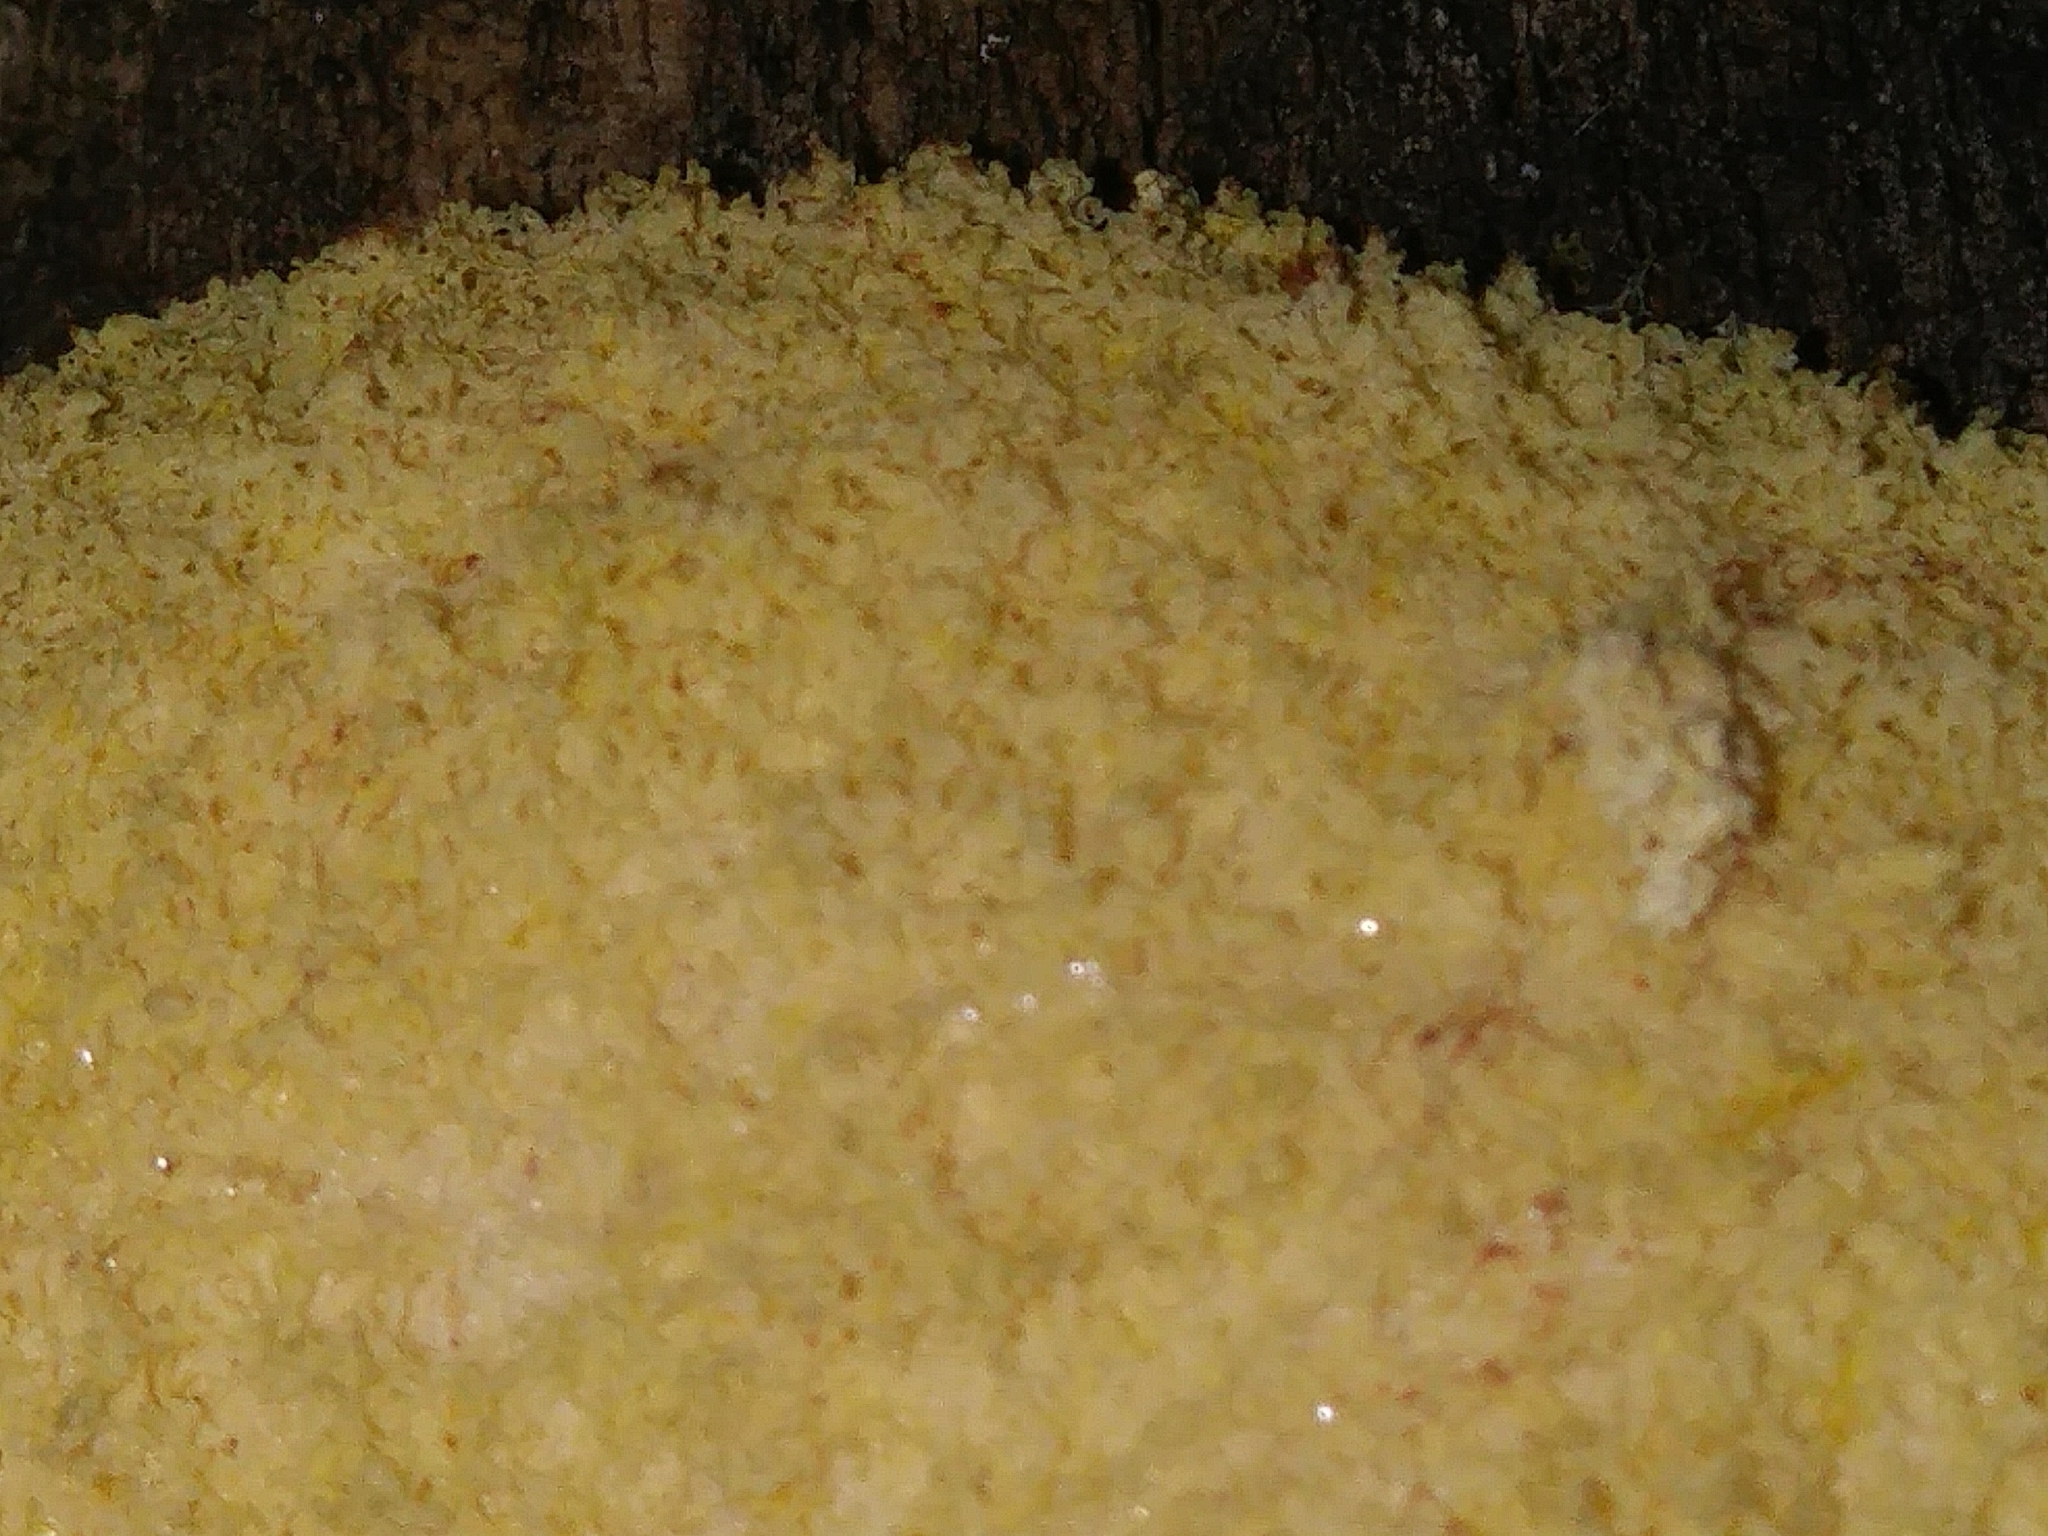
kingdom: Protozoa
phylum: Mycetozoa
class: Myxomycetes
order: Physarales
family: Physaraceae
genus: Fuligo
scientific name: Fuligo septica
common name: Dog vomit slime mold
